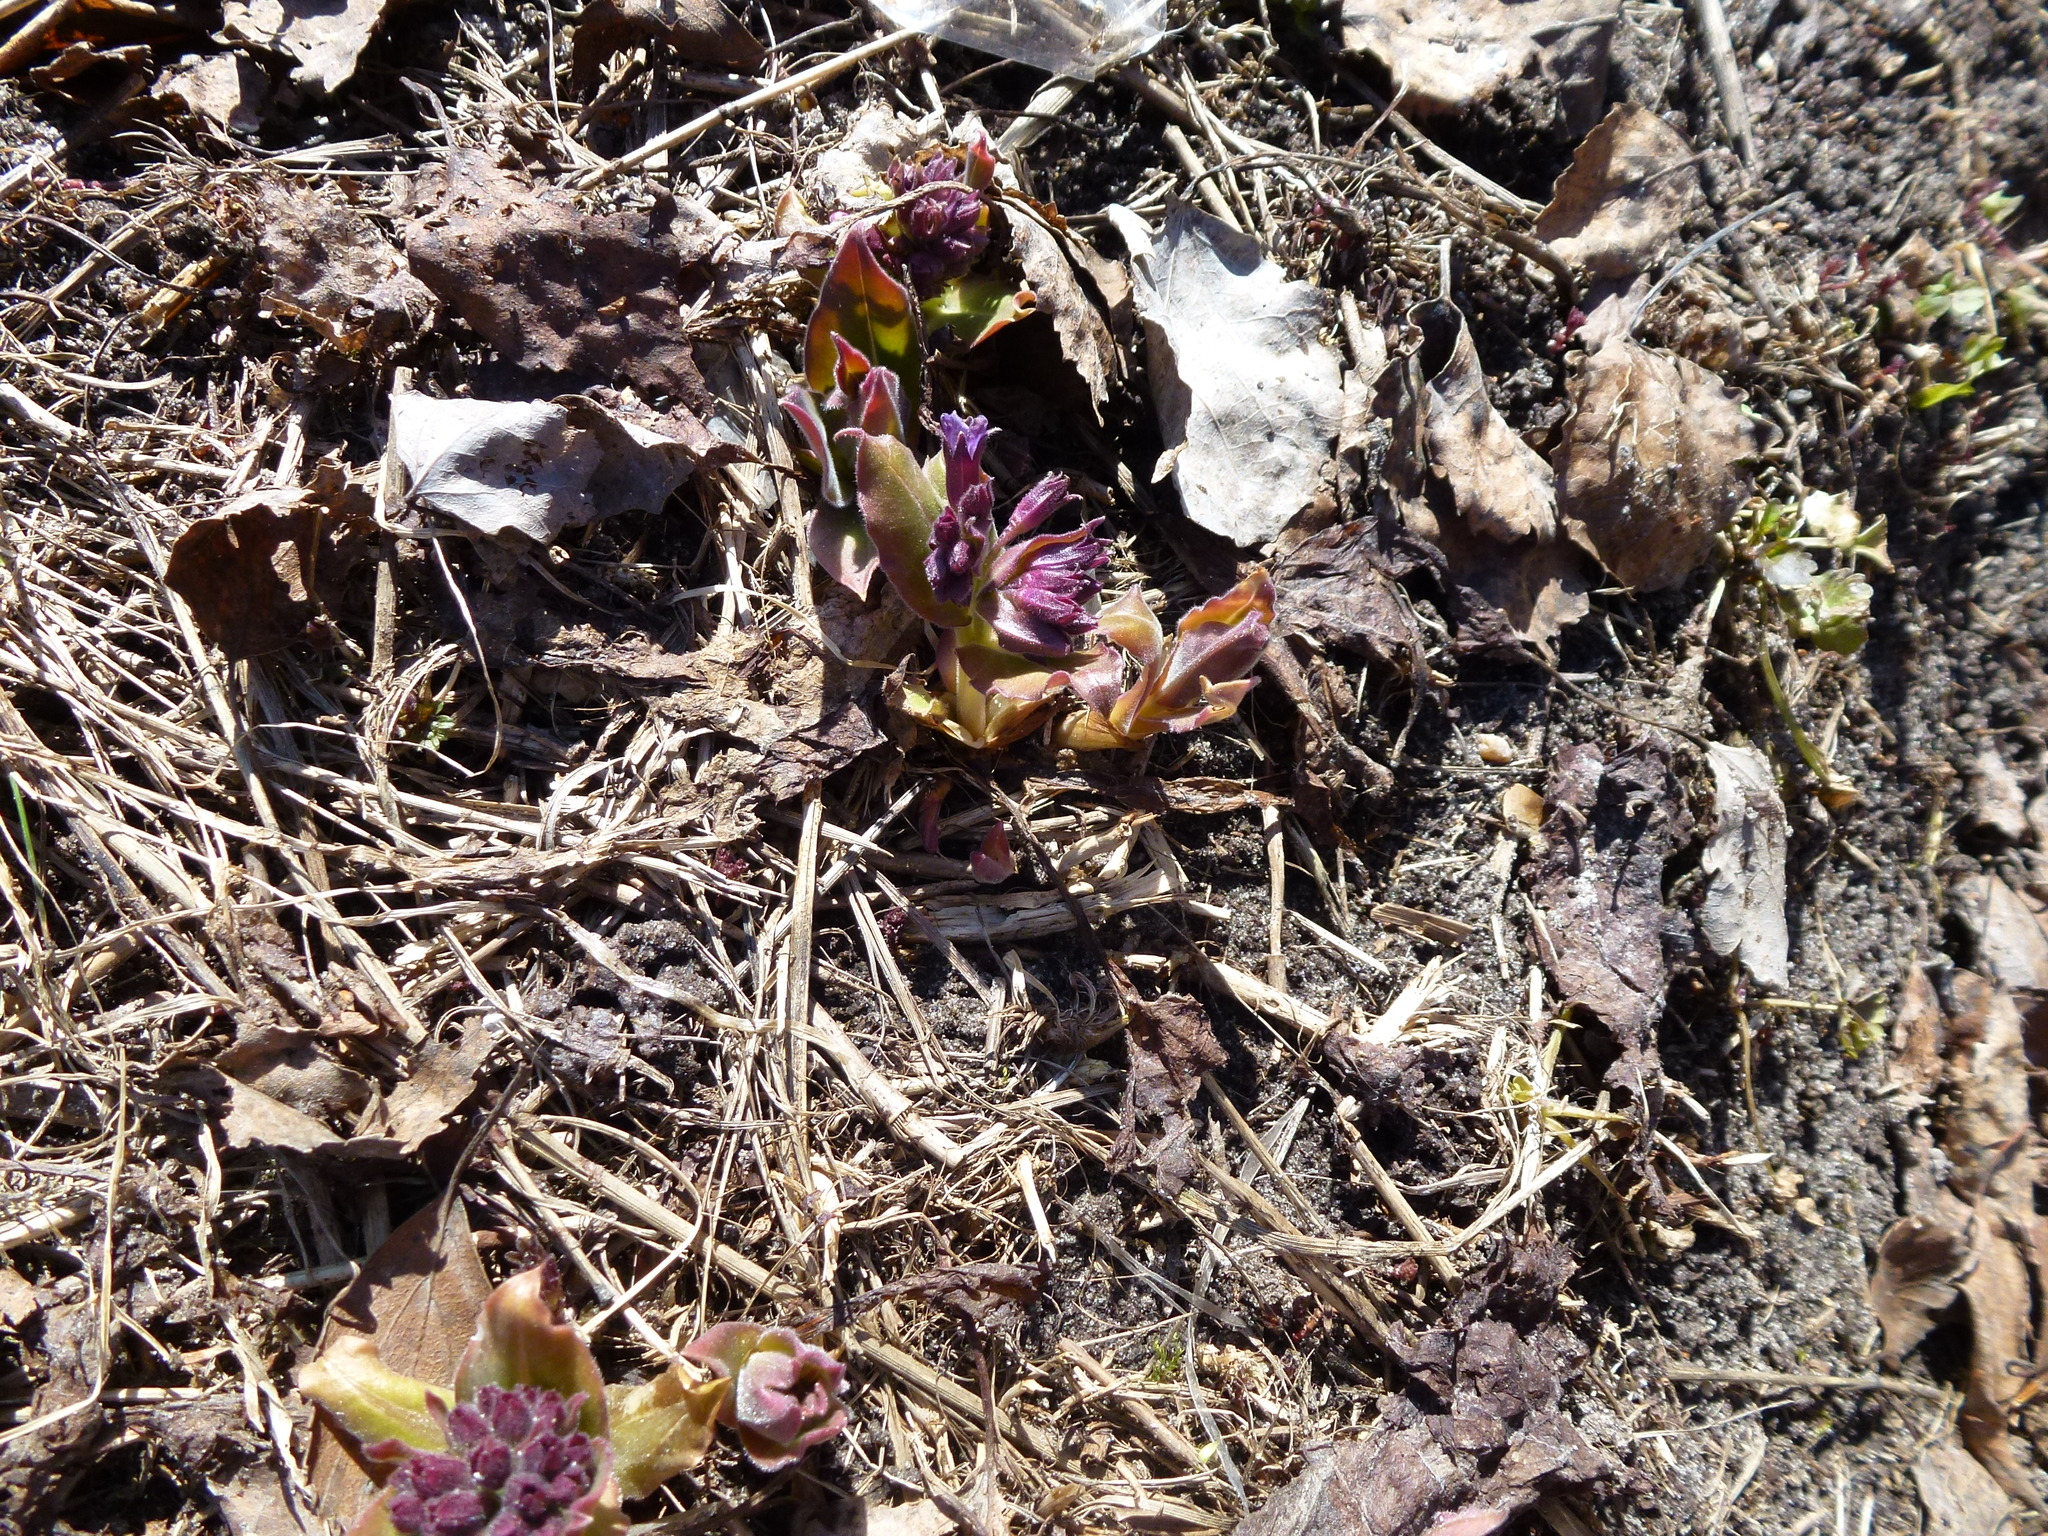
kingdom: Plantae
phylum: Tracheophyta
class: Magnoliopsida
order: Boraginales
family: Boraginaceae
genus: Pulmonaria
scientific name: Pulmonaria mollis
